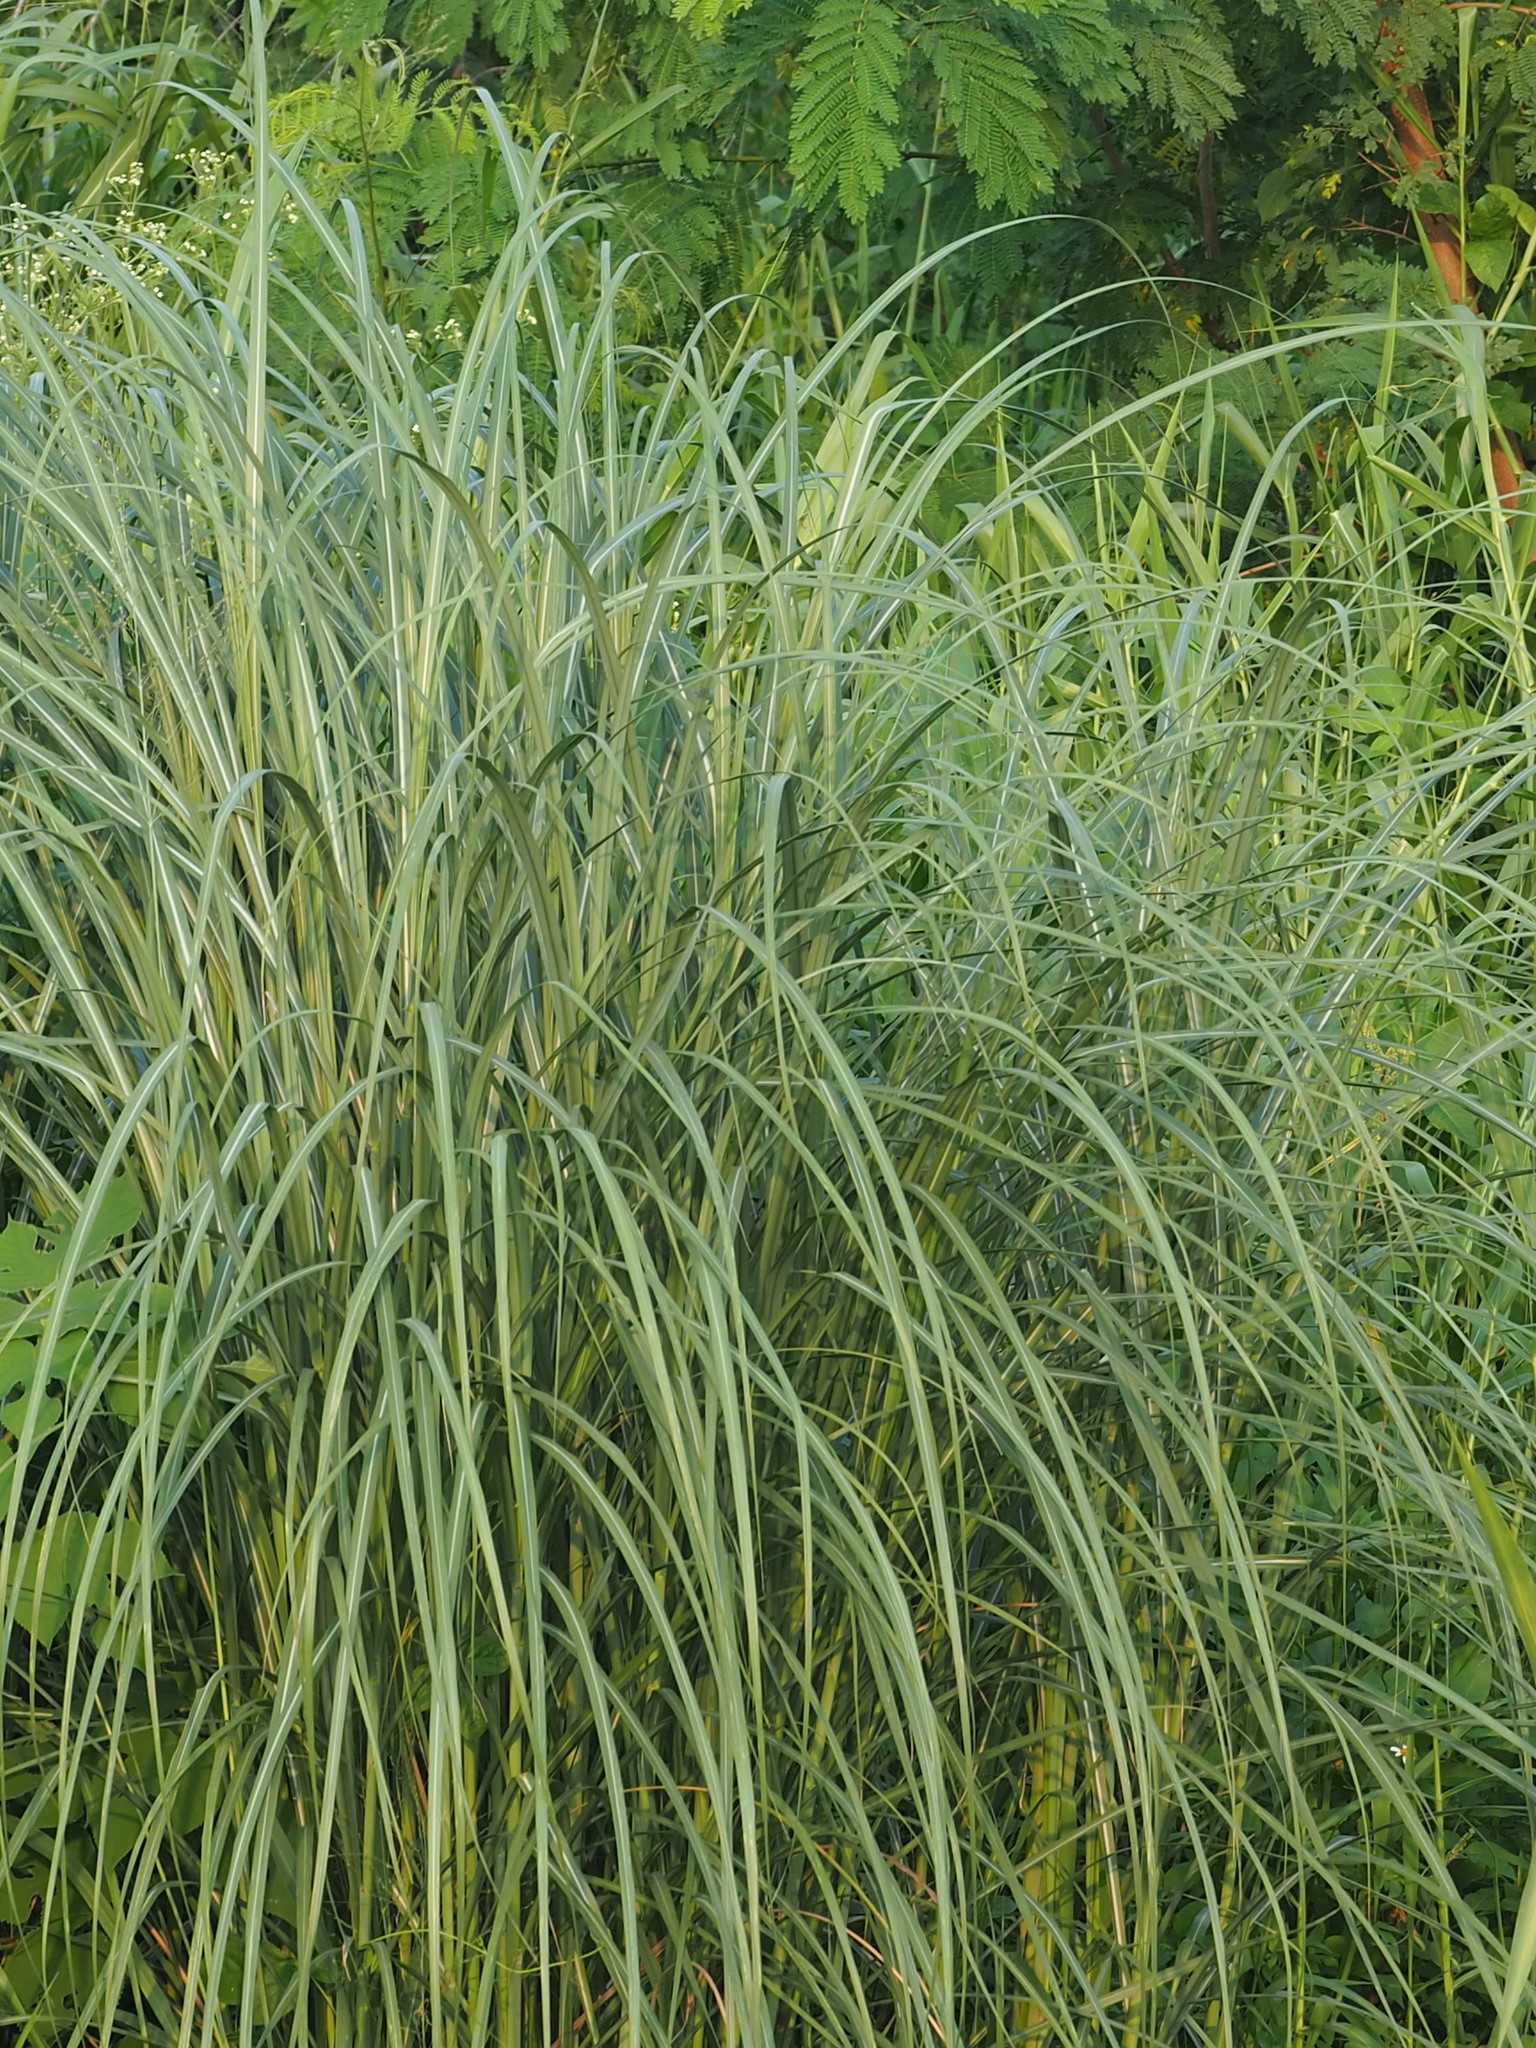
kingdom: Plantae
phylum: Tracheophyta
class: Liliopsida
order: Poales
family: Poaceae
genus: Saccharum
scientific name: Saccharum spontaneum
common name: Wild sugarcane
